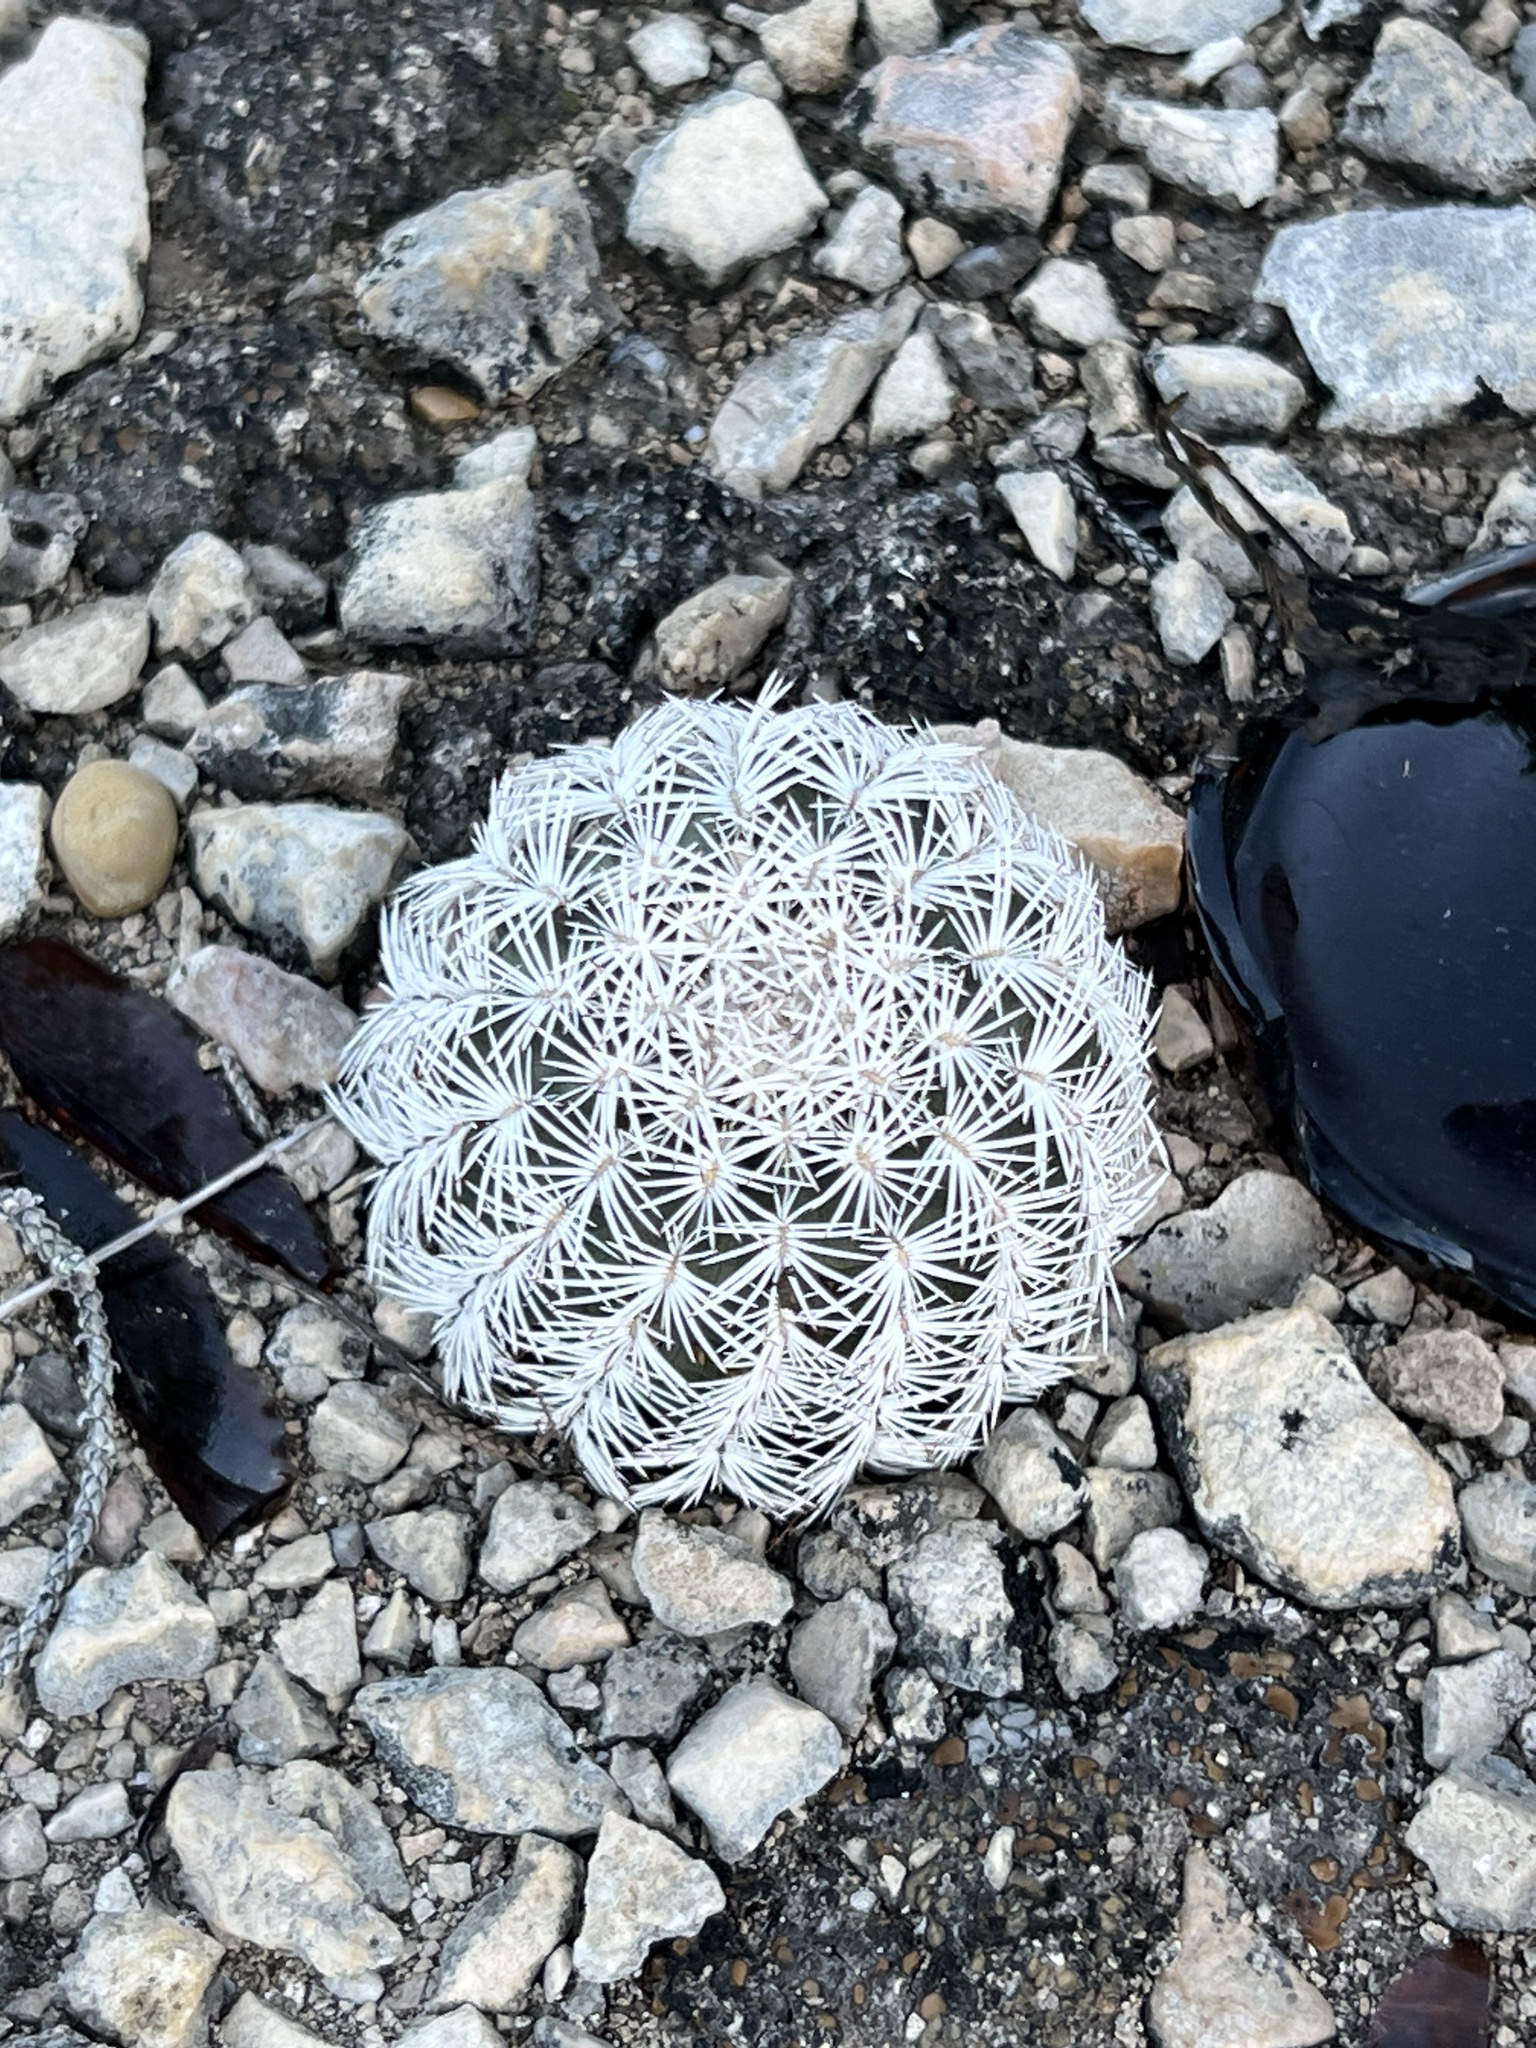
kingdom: Plantae
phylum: Tracheophyta
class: Magnoliopsida
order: Caryophyllales
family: Cactaceae
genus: Echinocereus
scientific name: Echinocereus reichenbachii
